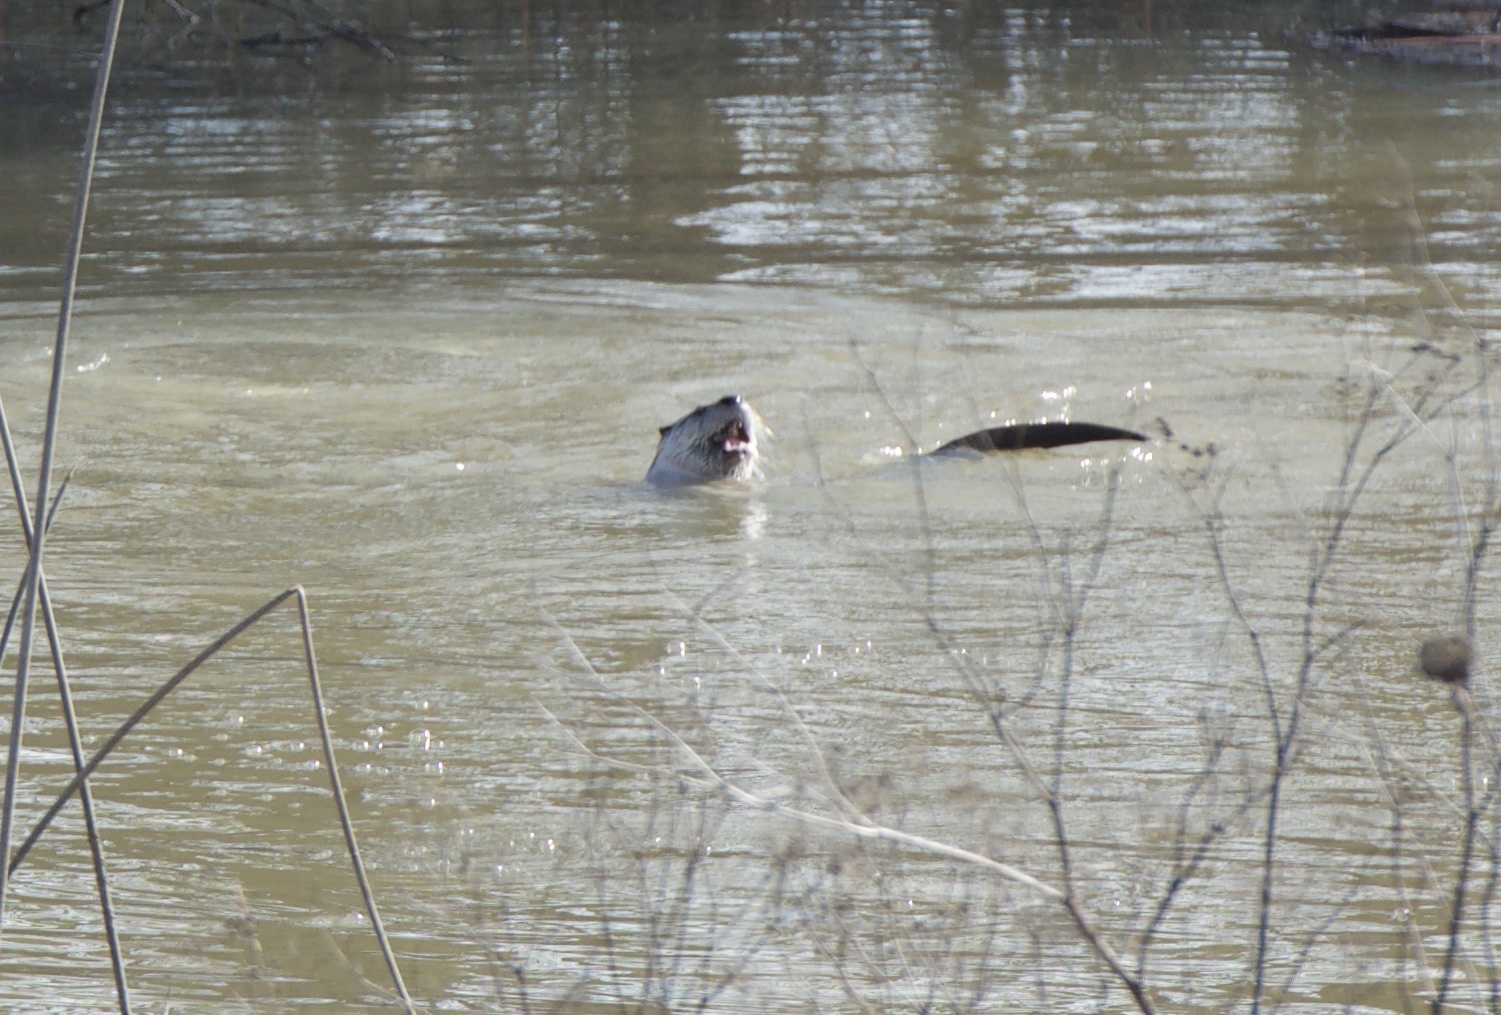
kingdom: Animalia
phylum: Chordata
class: Mammalia
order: Carnivora
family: Mustelidae
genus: Lontra
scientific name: Lontra canadensis
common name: North american river otter
